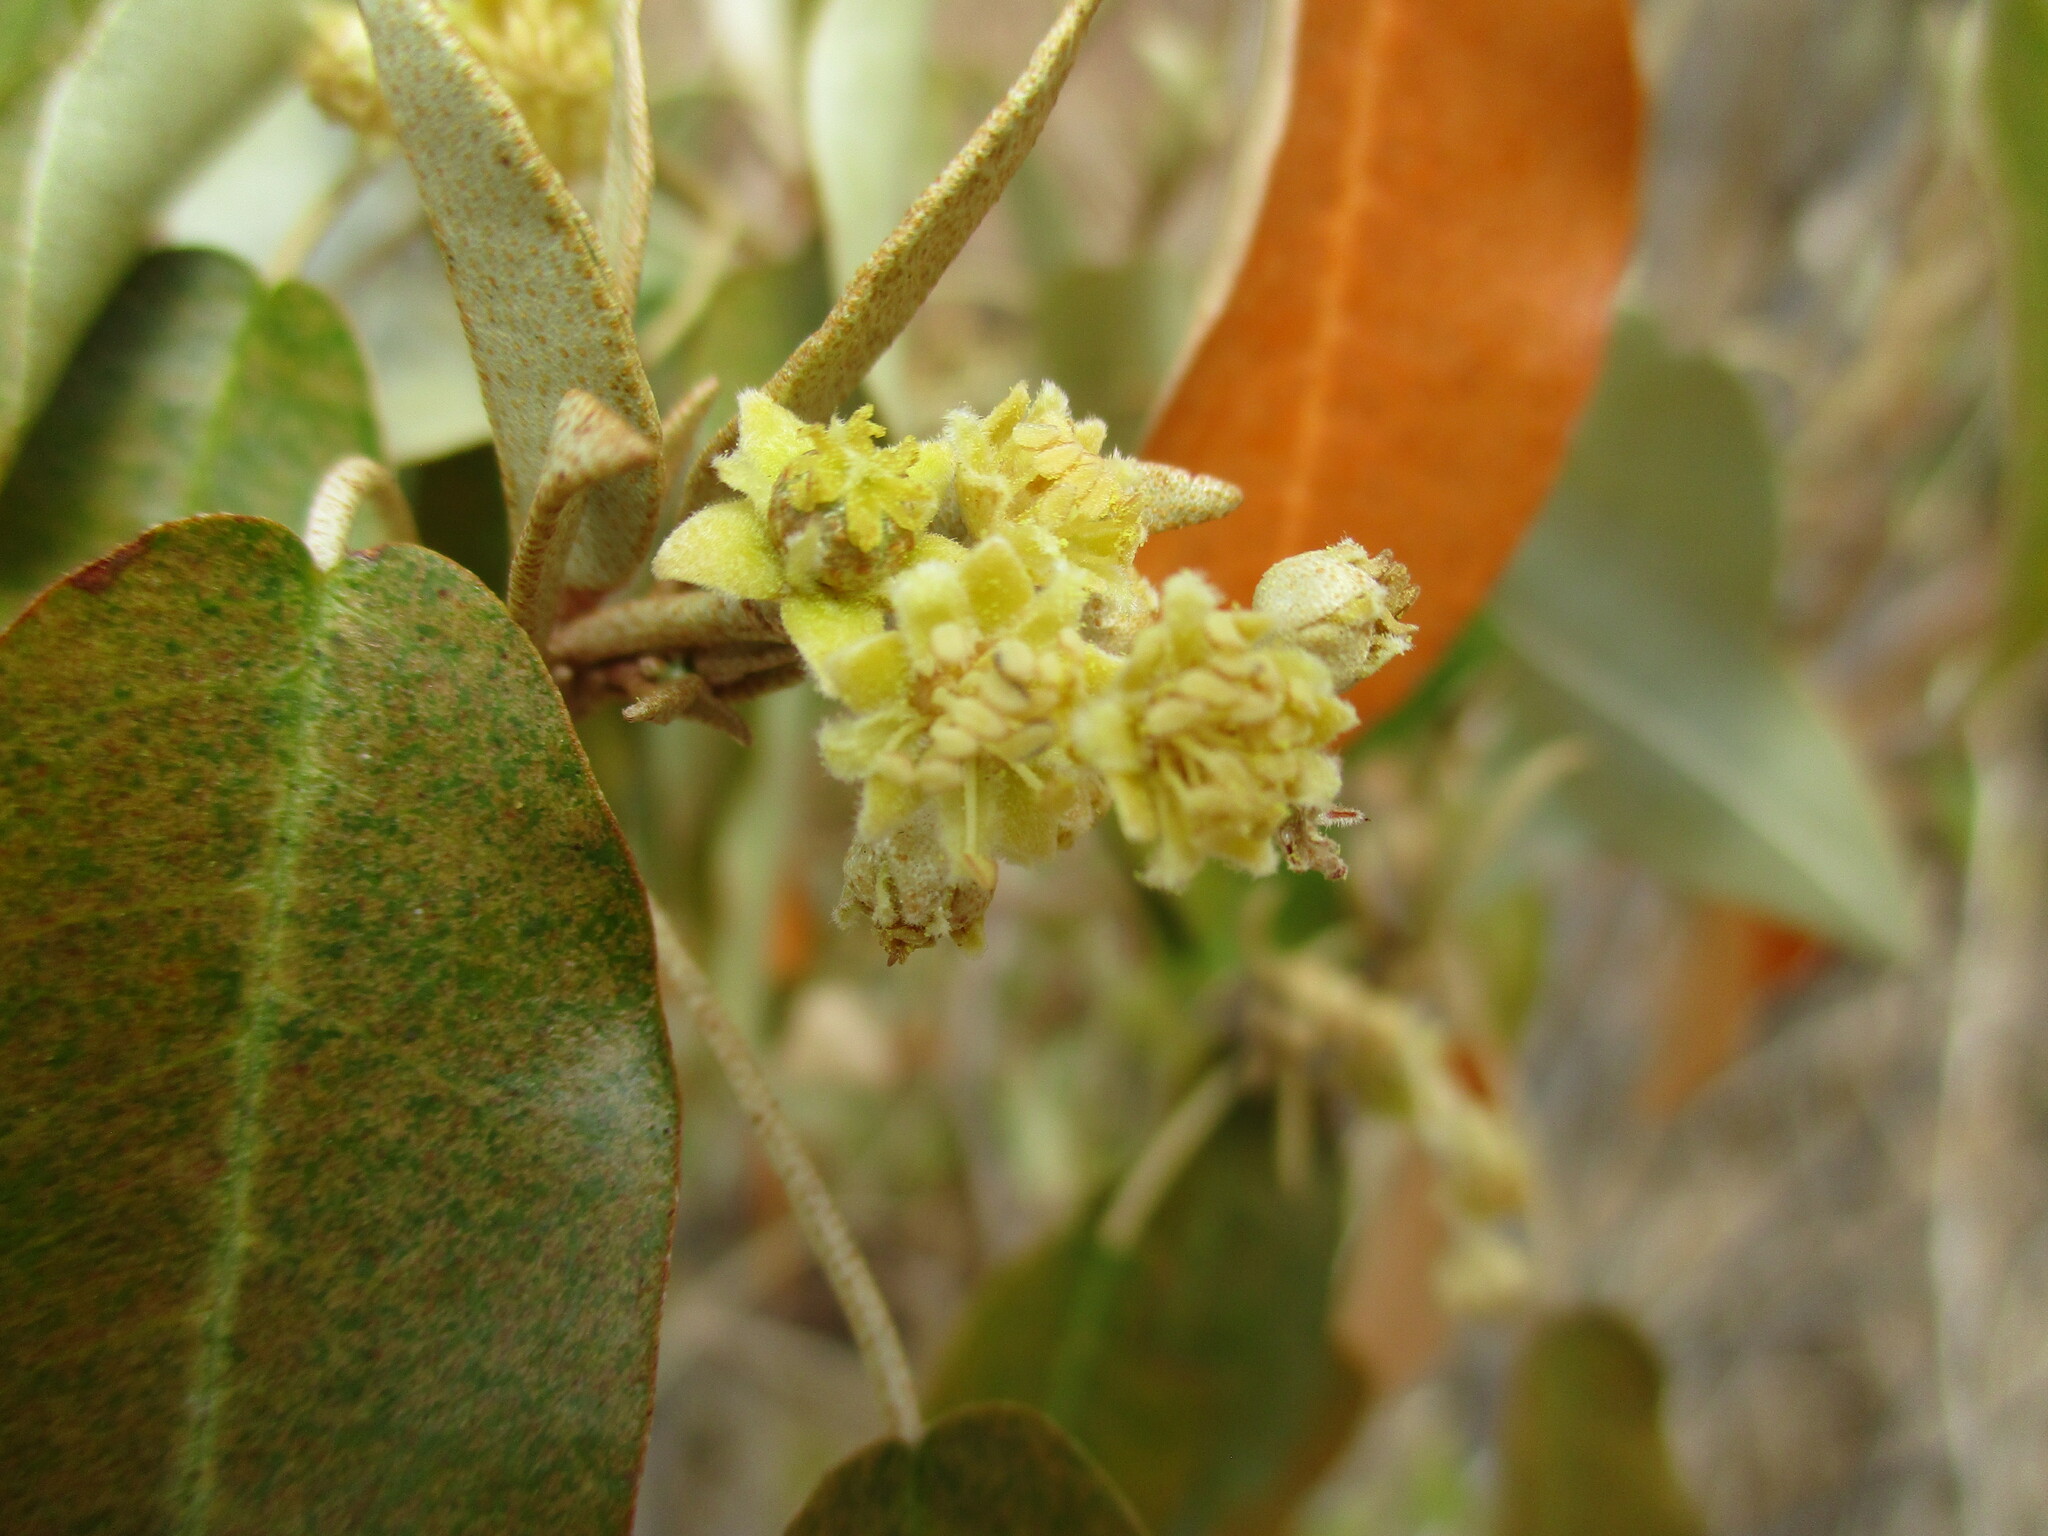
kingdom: Plantae
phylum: Tracheophyta
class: Magnoliopsida
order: Malpighiales
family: Euphorbiaceae
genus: Croton
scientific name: Croton gratissimus
